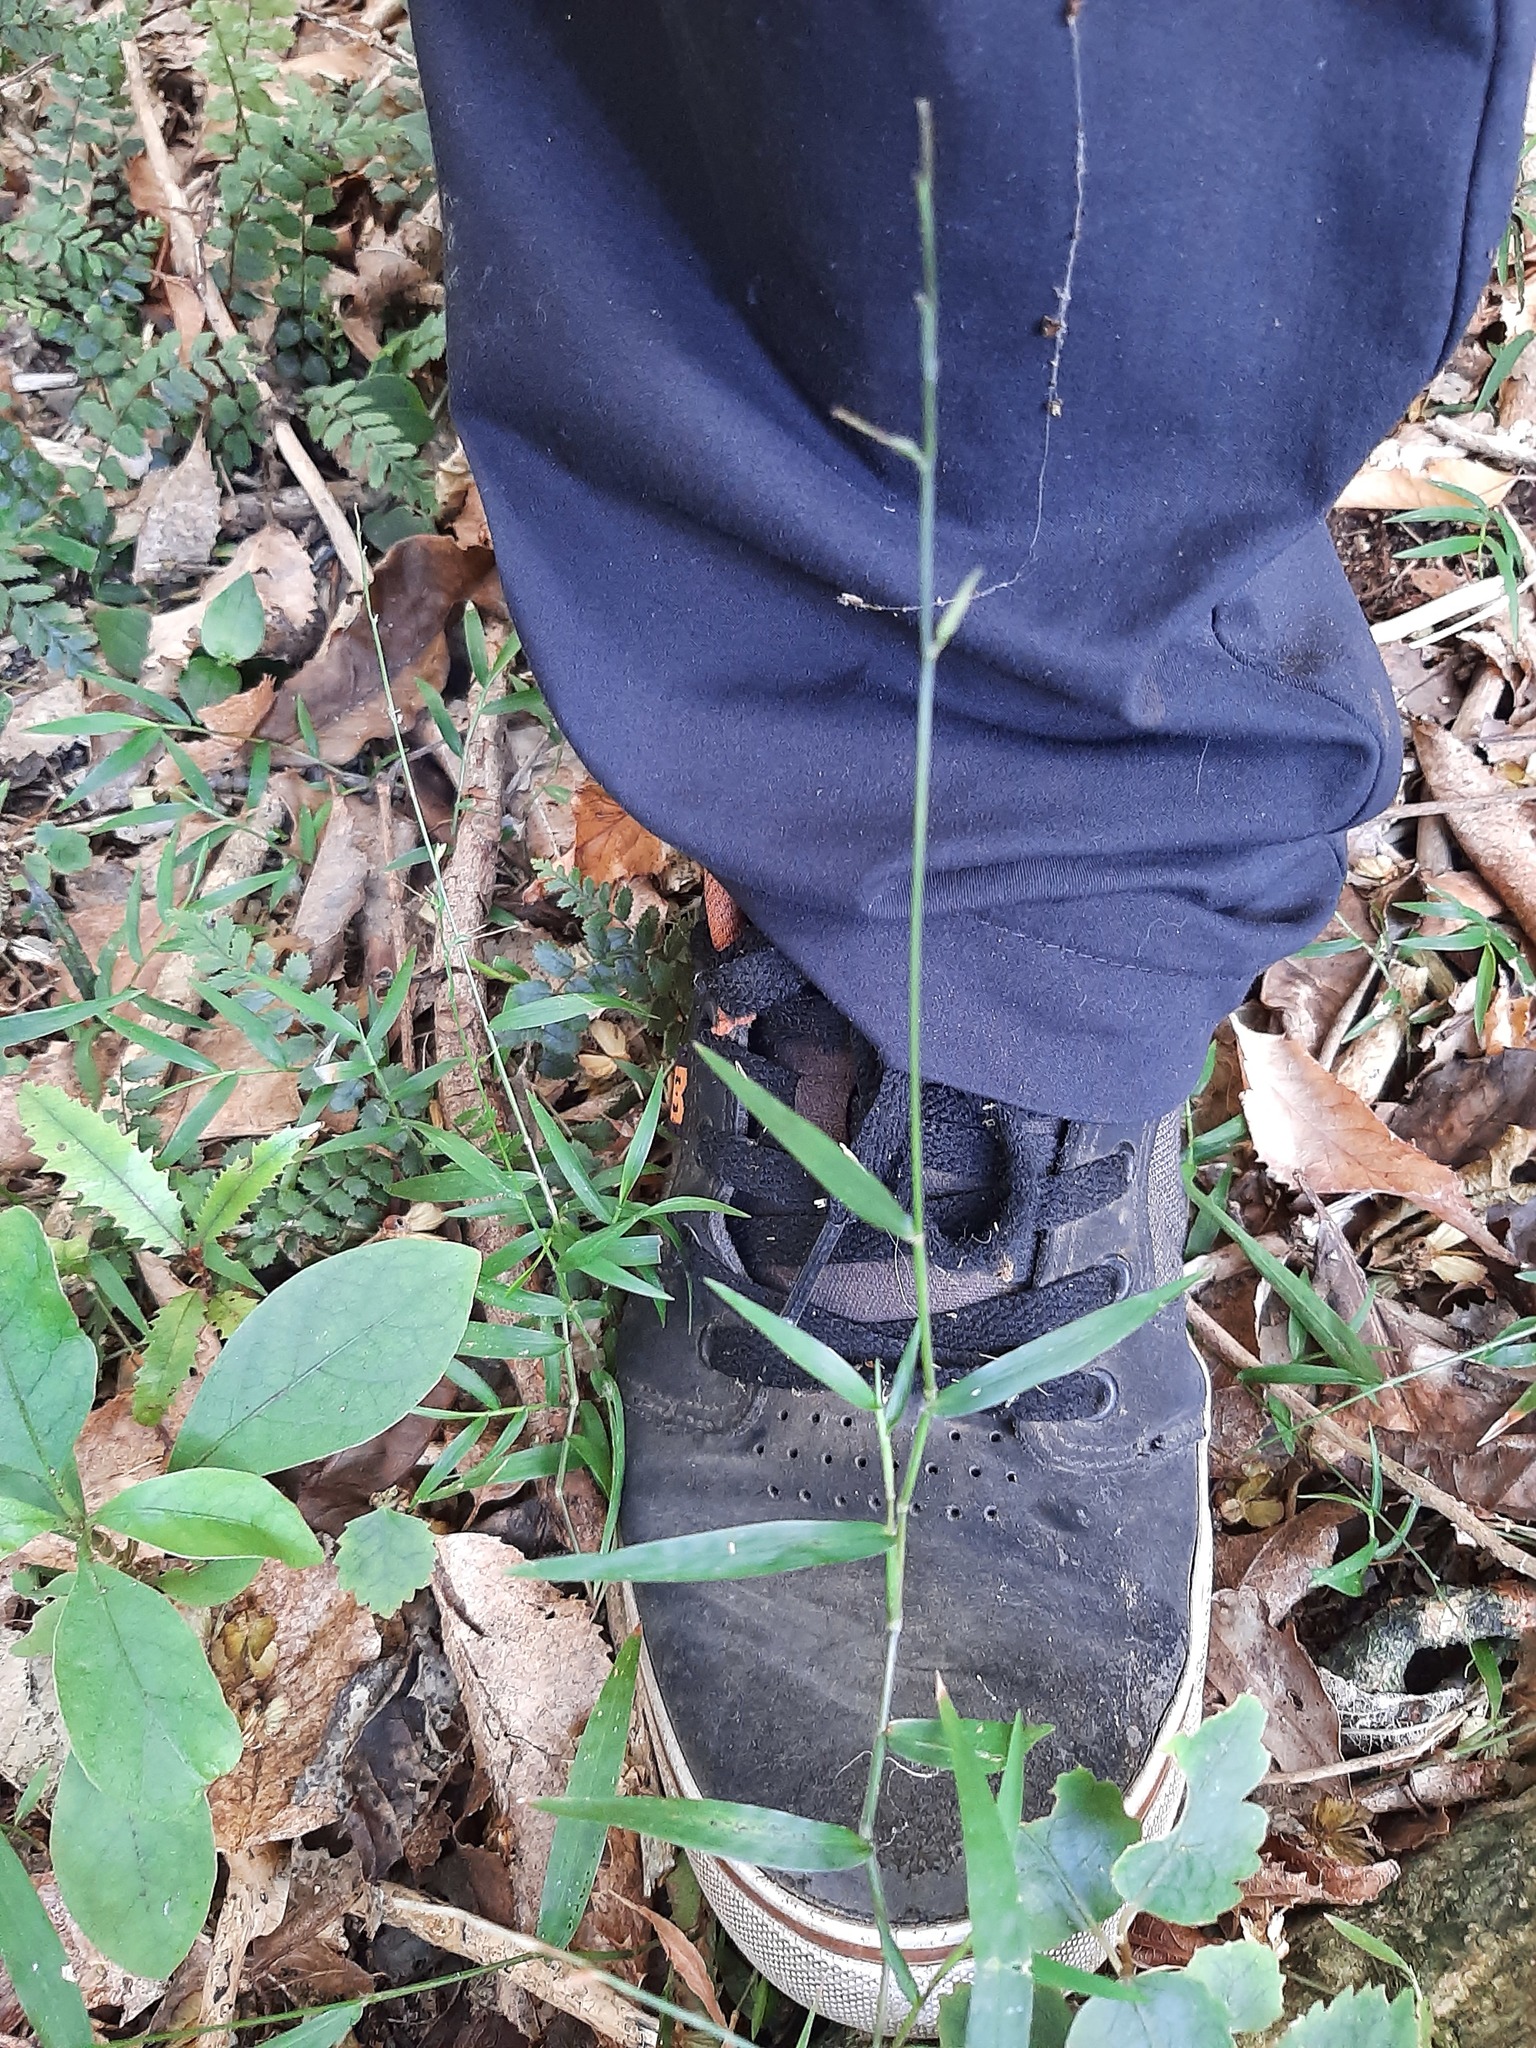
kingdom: Plantae
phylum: Tracheophyta
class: Liliopsida
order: Poales
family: Poaceae
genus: Oplismenus
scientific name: Oplismenus hirtellus
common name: Basketgrass
